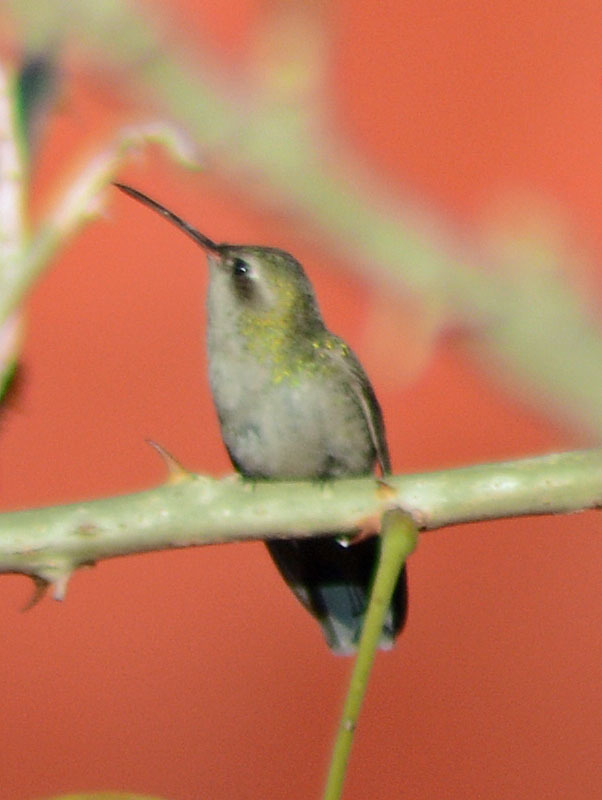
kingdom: Animalia
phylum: Chordata
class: Aves
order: Apodiformes
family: Trochilidae
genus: Cynanthus
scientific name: Cynanthus latirostris
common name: Broad-billed hummingbird
